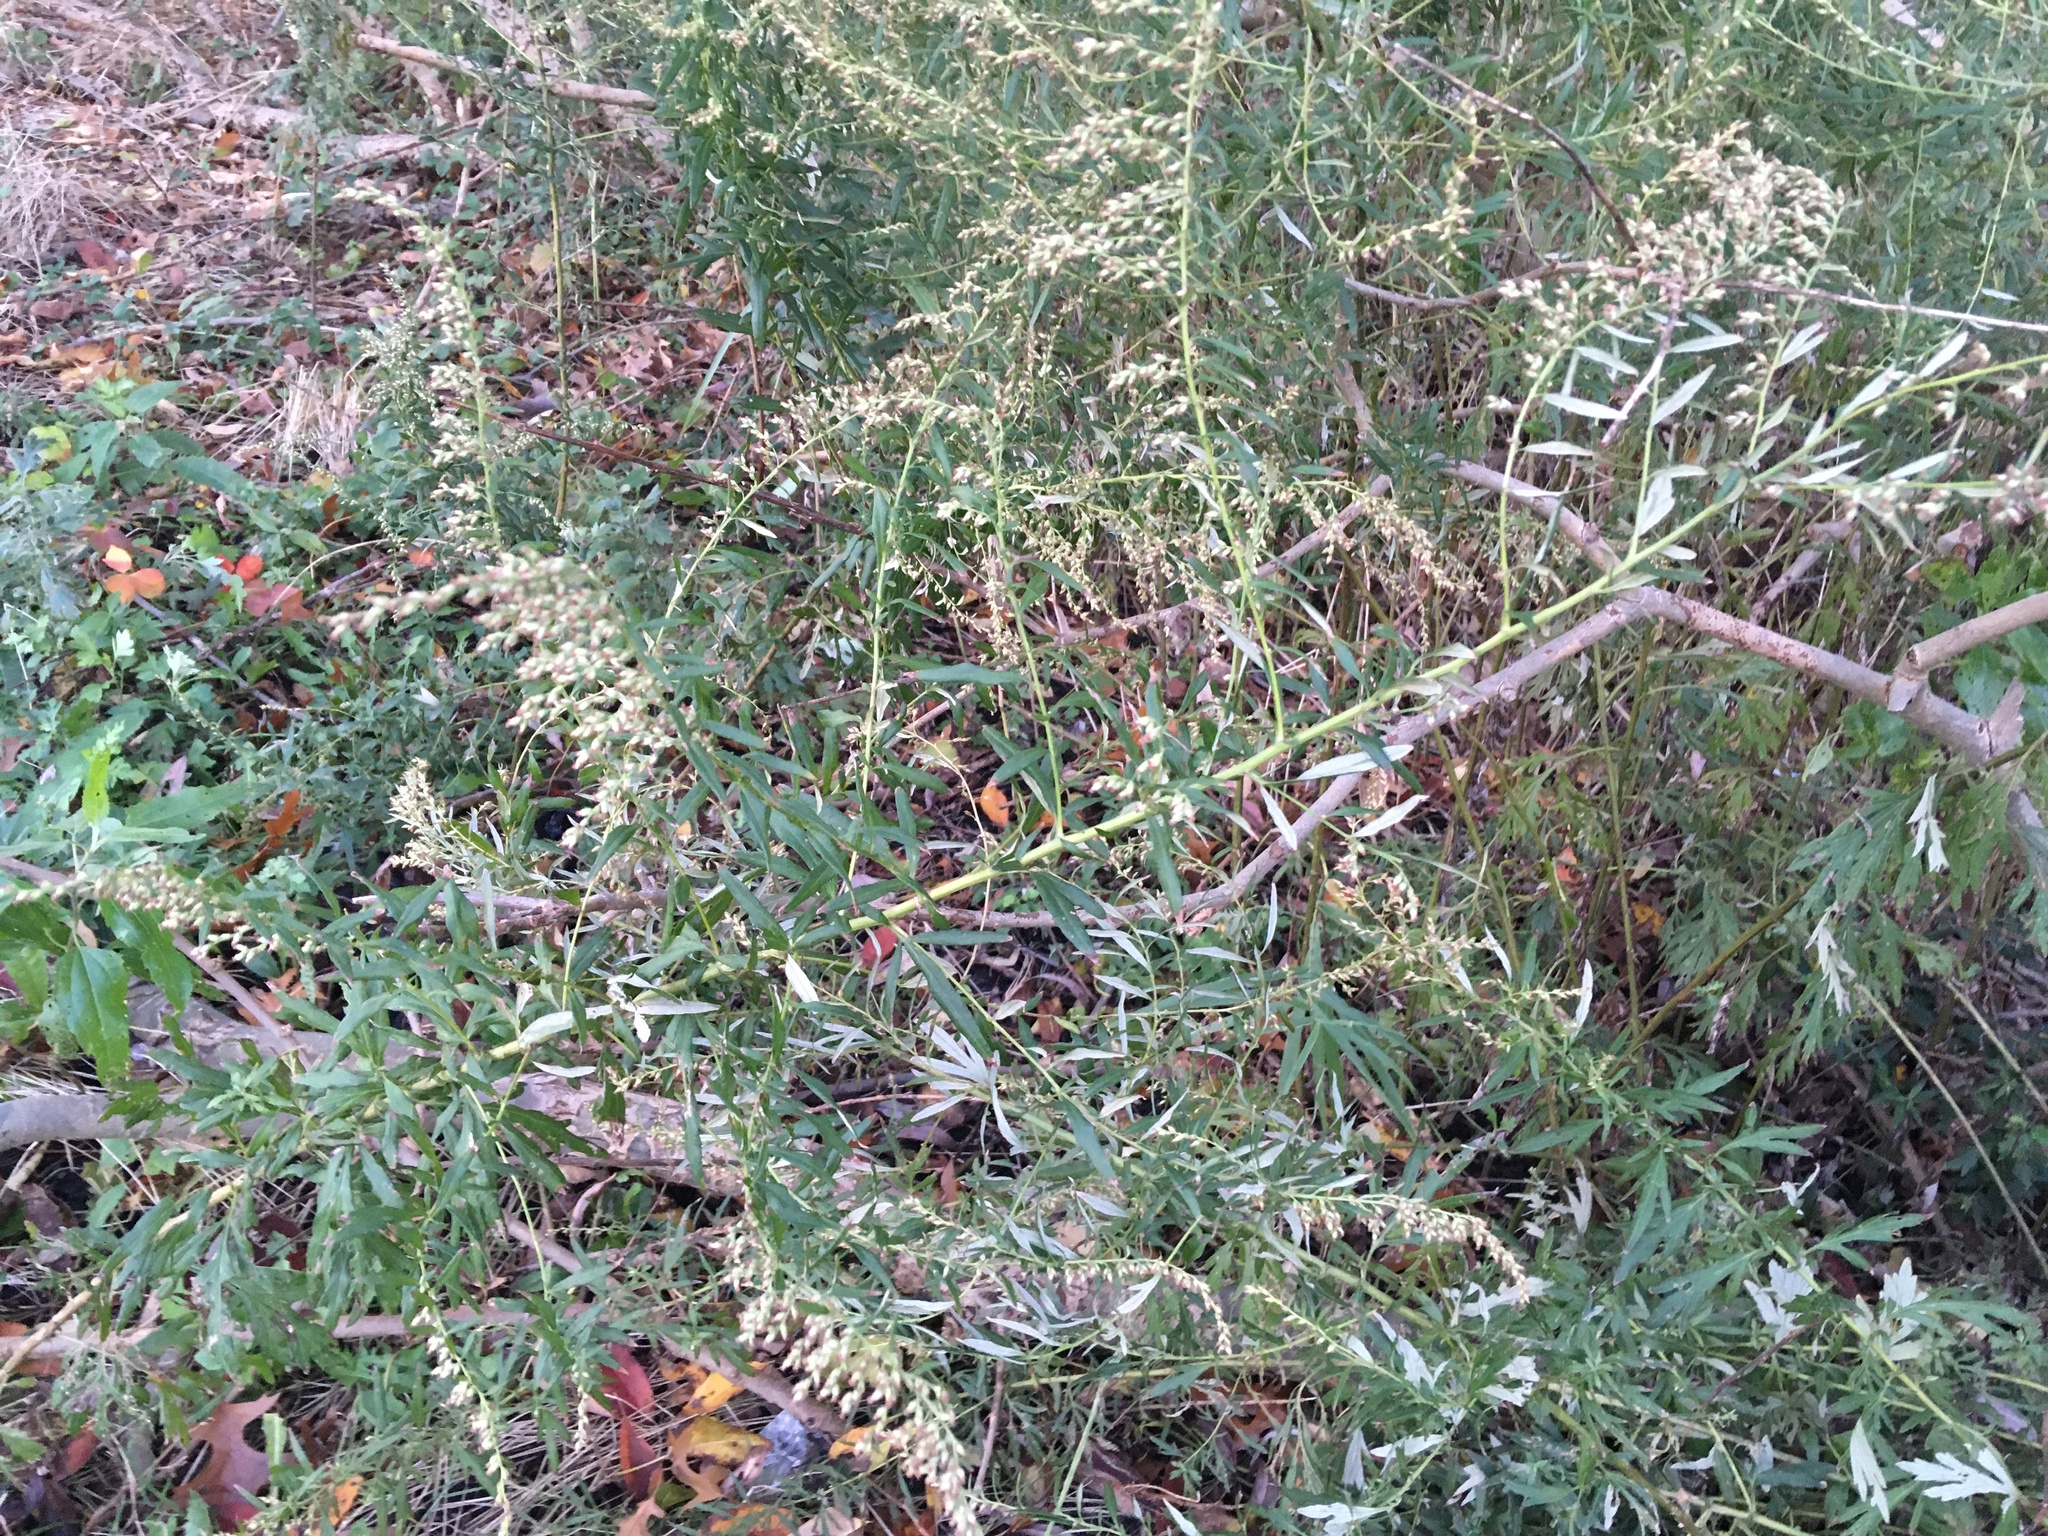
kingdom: Plantae
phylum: Tracheophyta
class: Magnoliopsida
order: Asterales
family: Asteraceae
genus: Artemisia
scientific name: Artemisia vulgaris
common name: Mugwort
